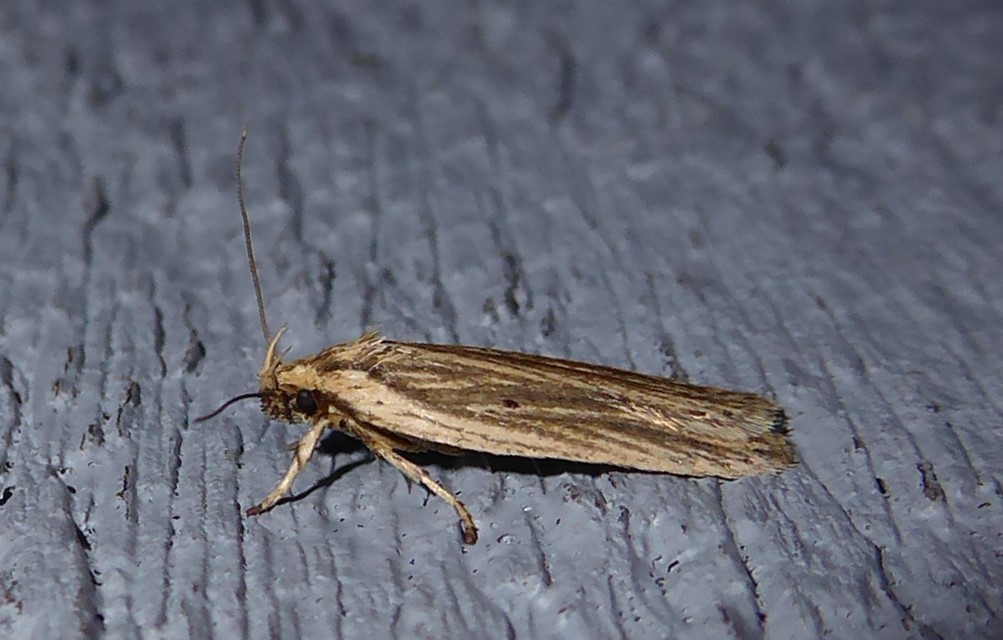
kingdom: Animalia
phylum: Arthropoda
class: Insecta
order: Lepidoptera
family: Depressariidae
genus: Agonopterix
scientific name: Agonopterix
